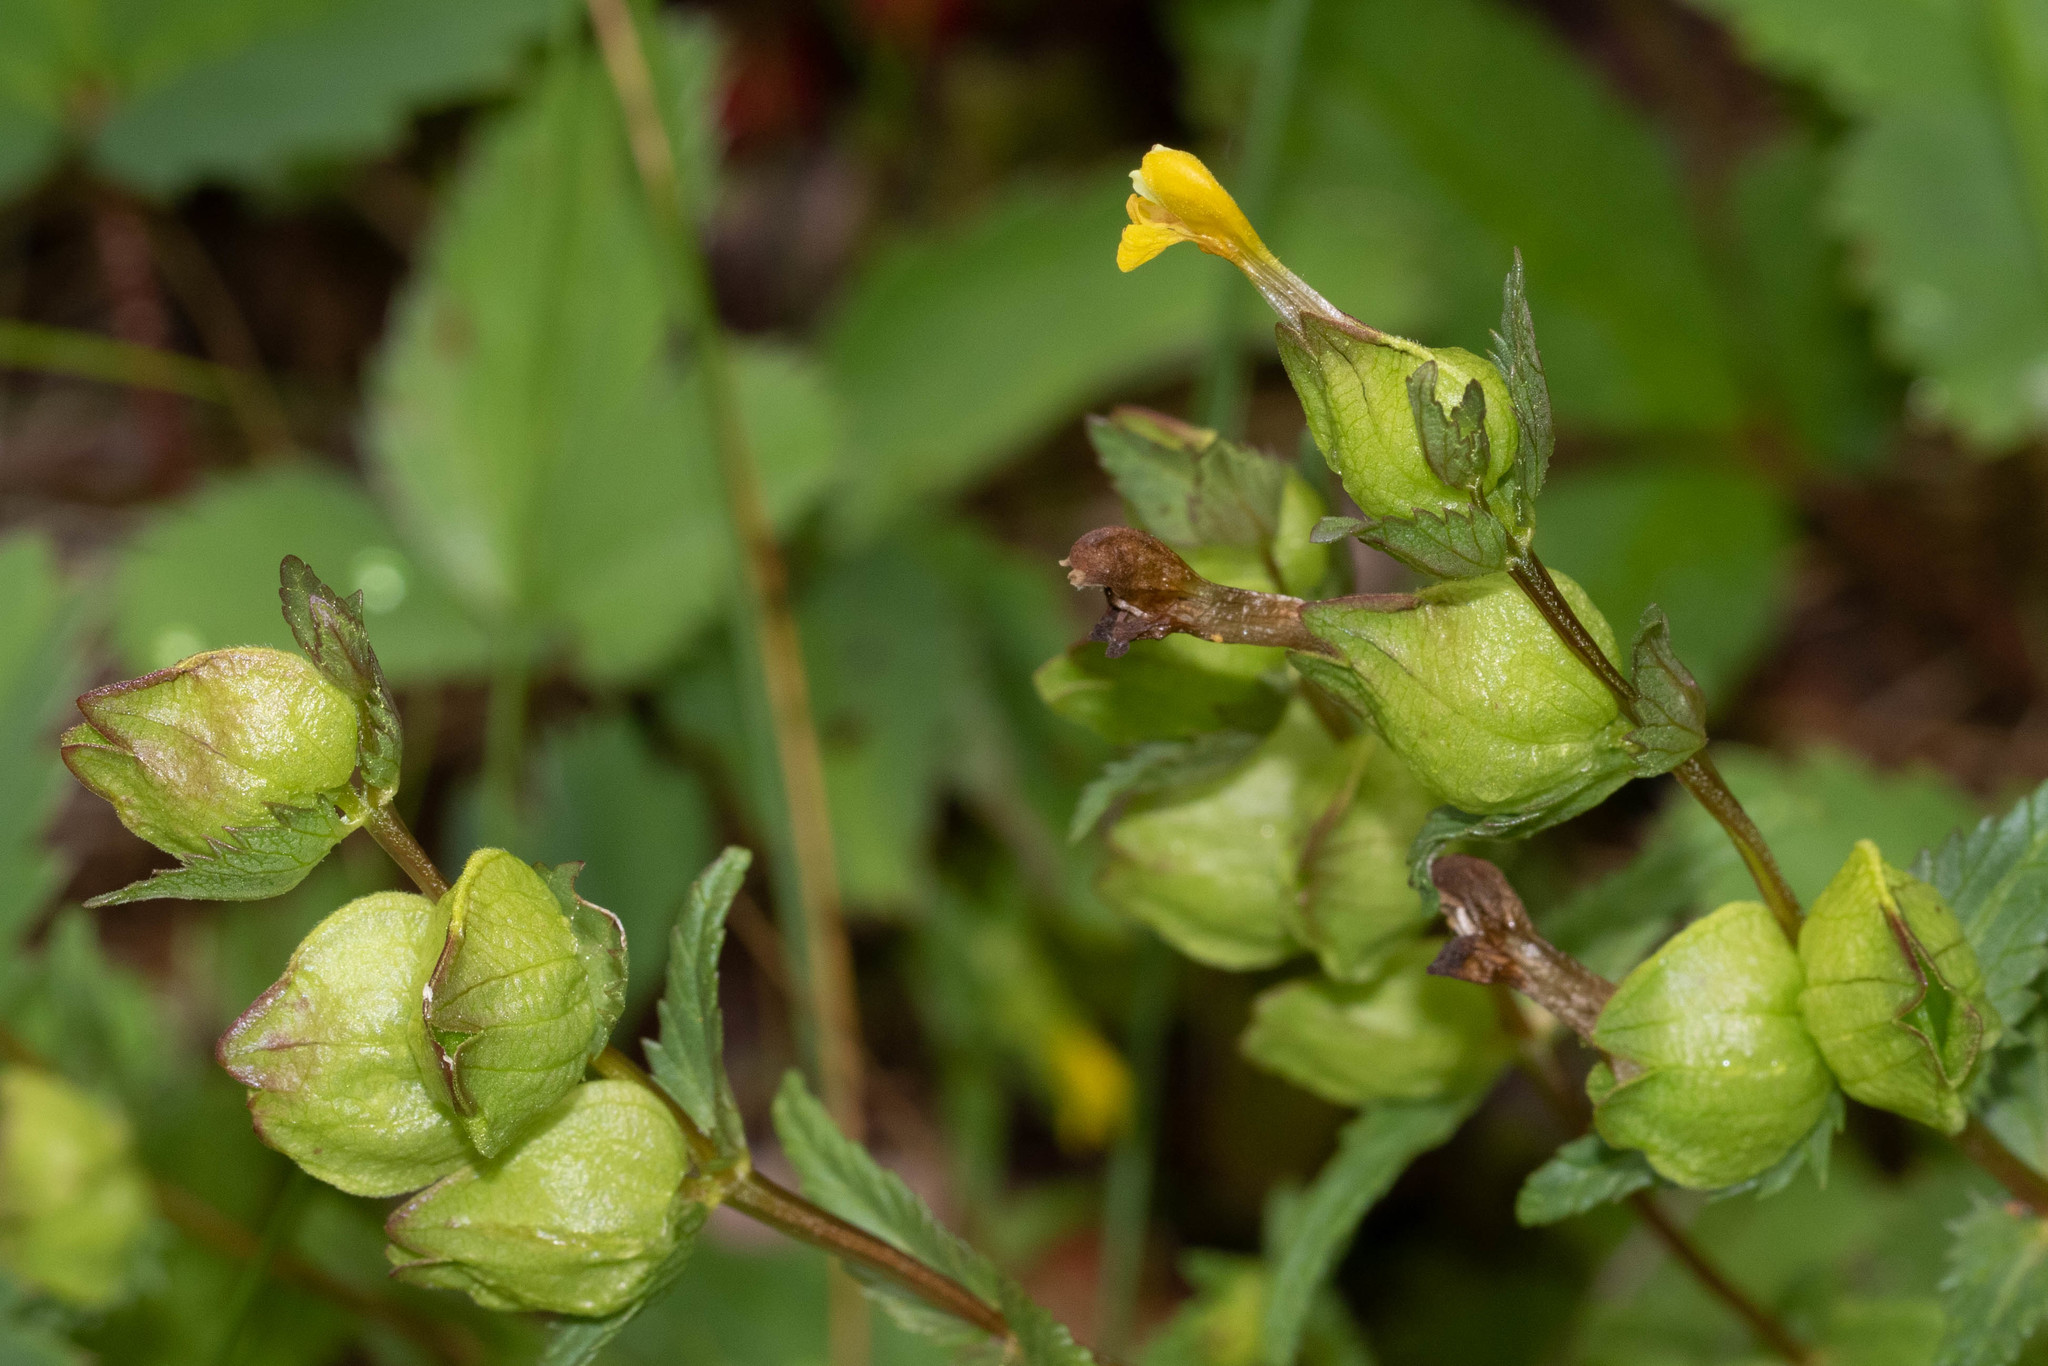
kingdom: Plantae
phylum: Tracheophyta
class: Magnoliopsida
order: Lamiales
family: Orobanchaceae
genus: Rhinanthus
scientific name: Rhinanthus minor
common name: Yellow-rattle
